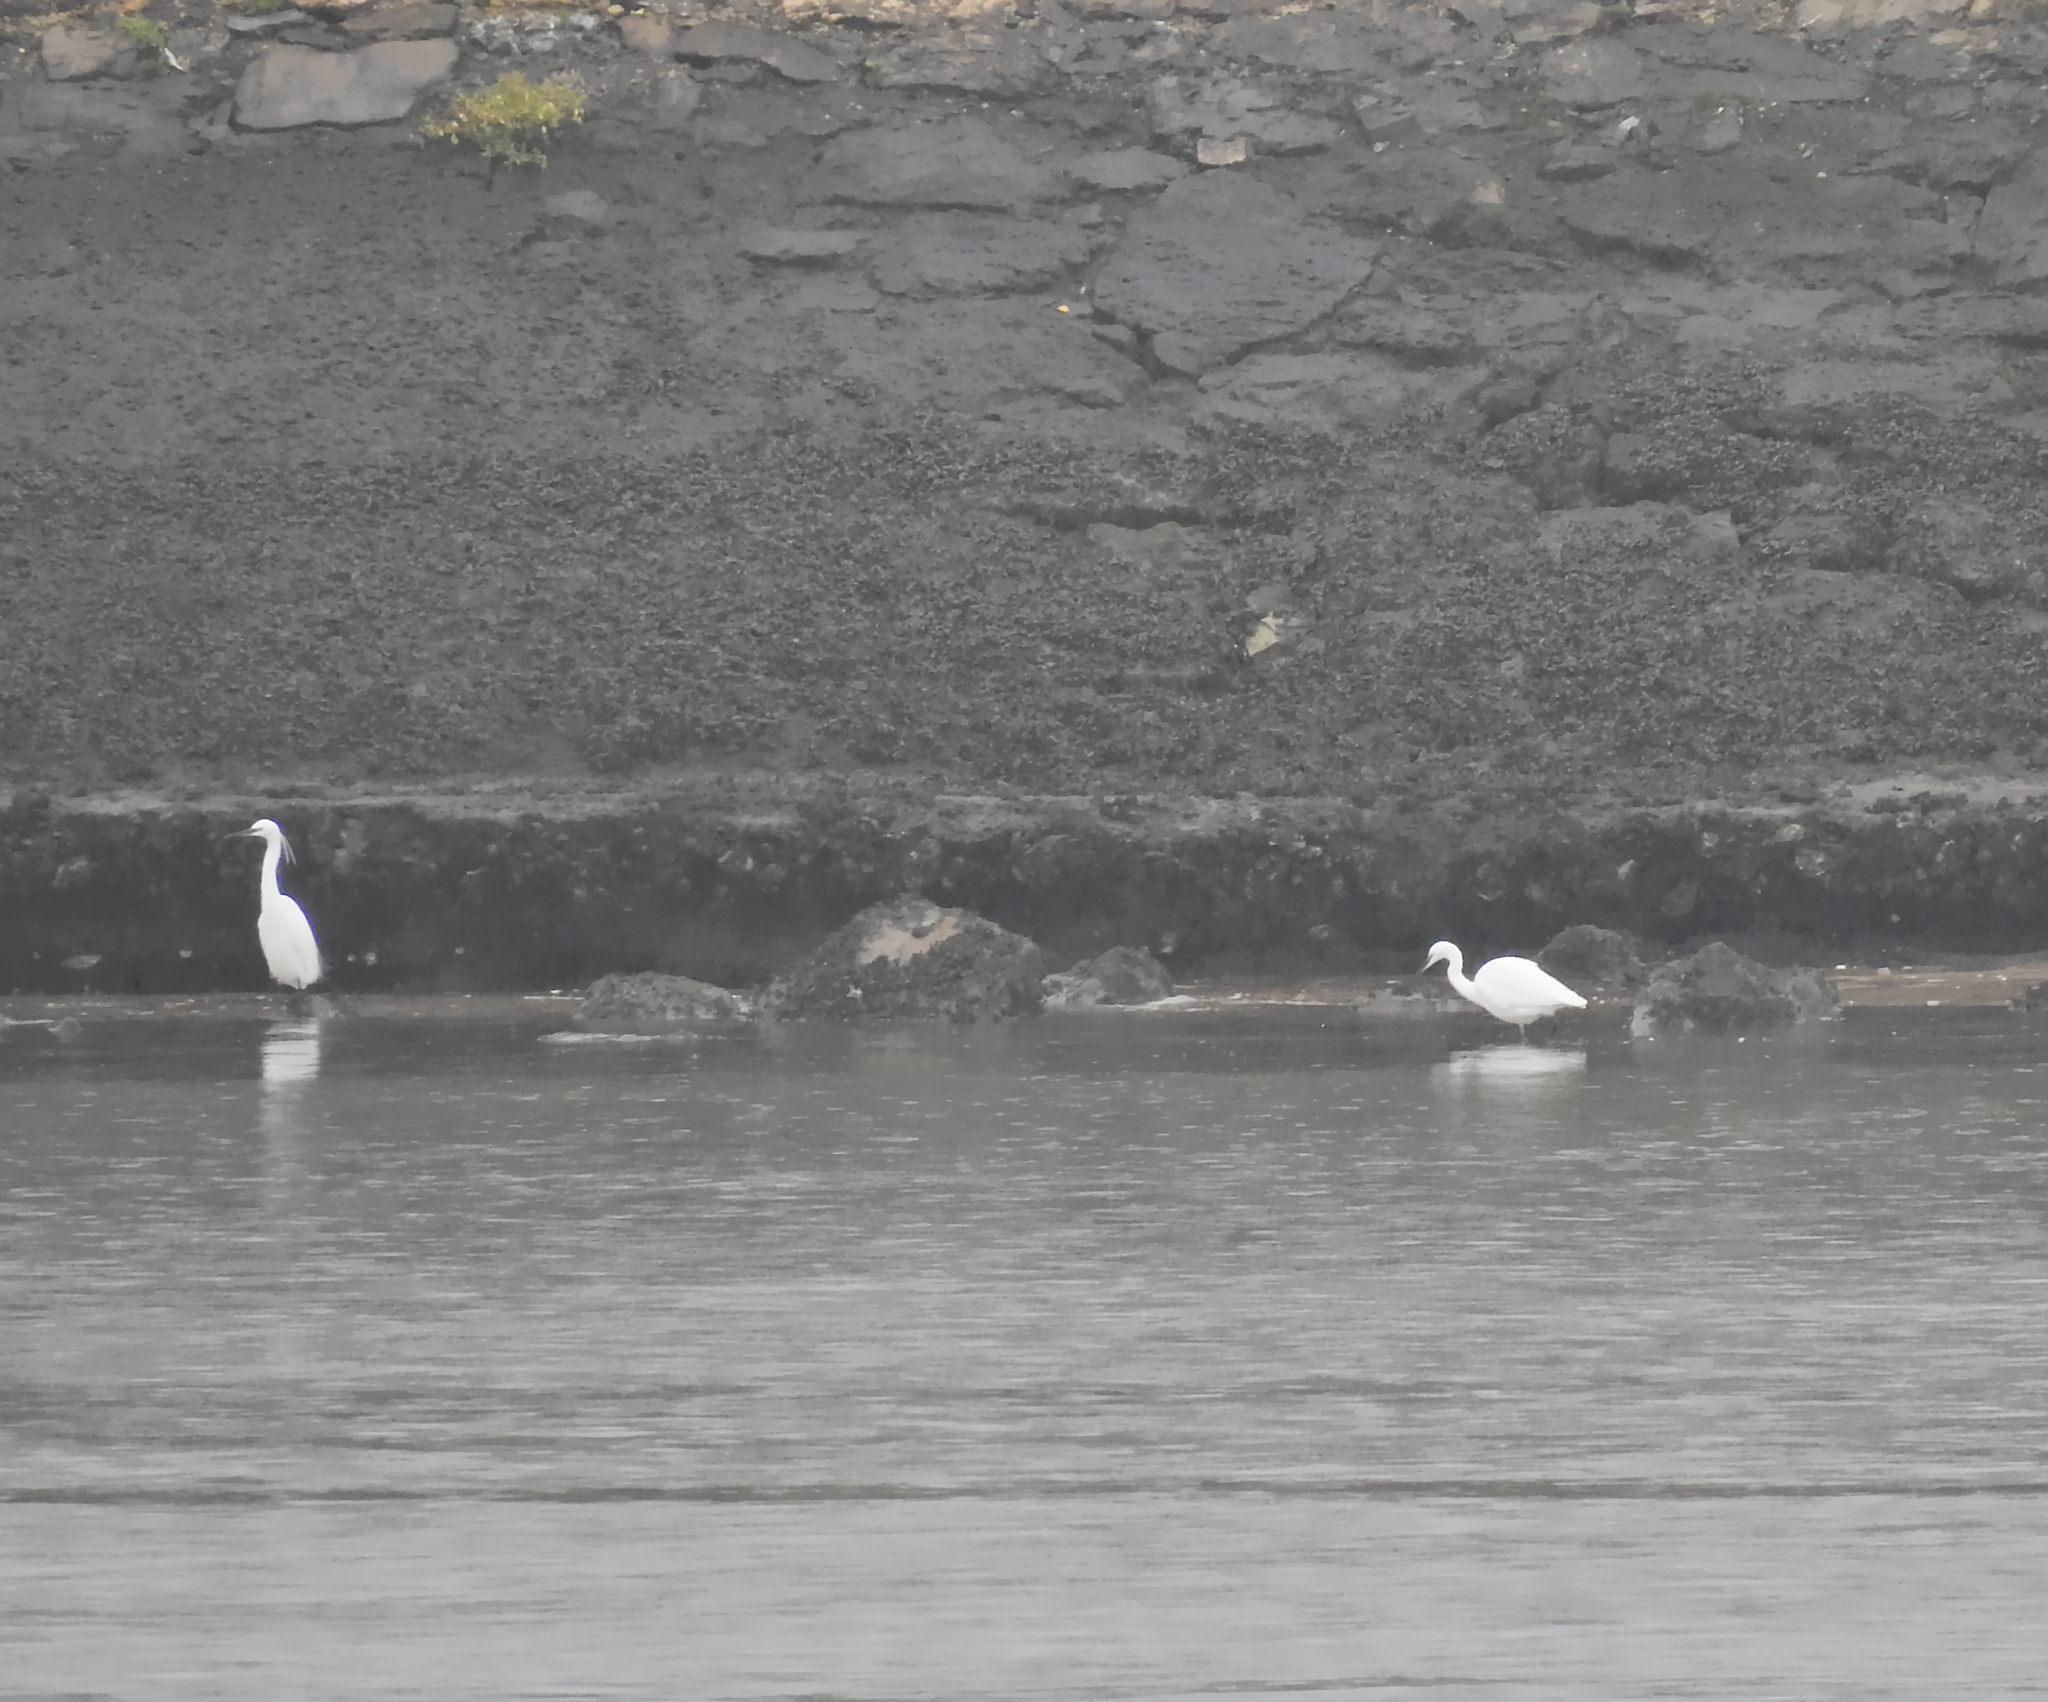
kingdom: Animalia
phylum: Chordata
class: Aves
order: Pelecaniformes
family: Ardeidae
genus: Egretta
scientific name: Egretta garzetta
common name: Little egret
